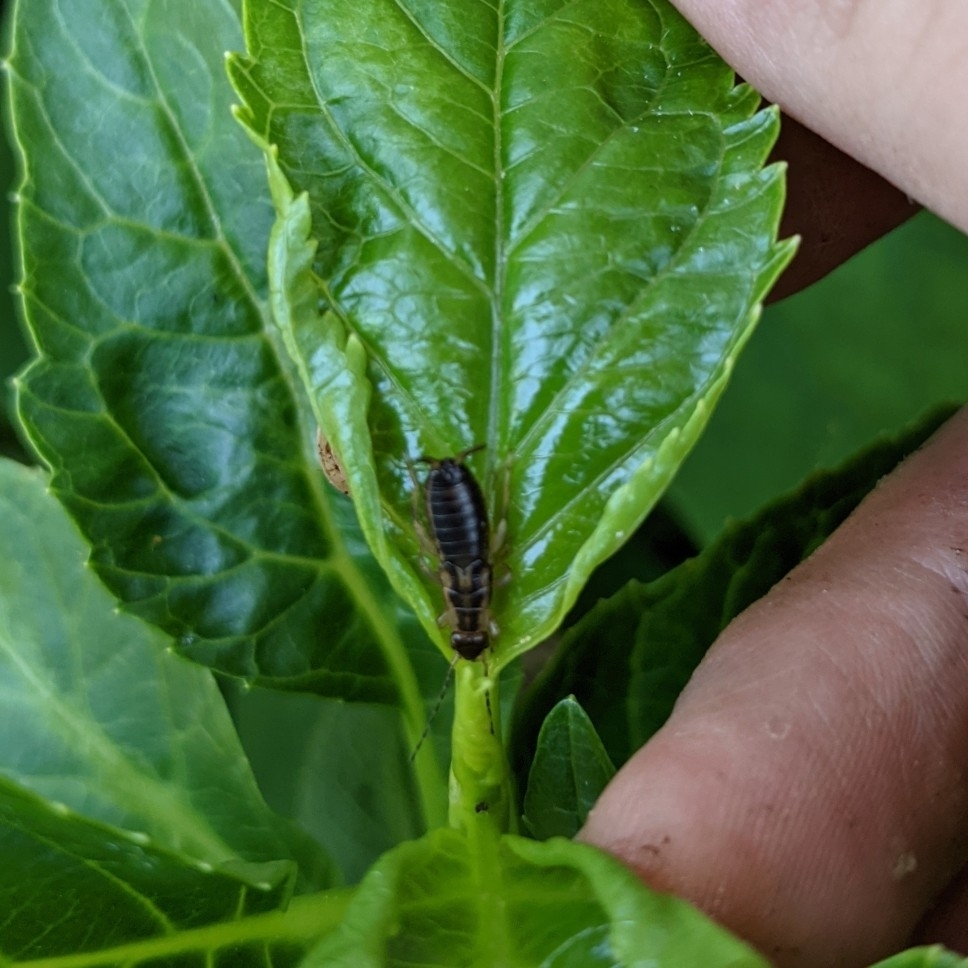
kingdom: Animalia
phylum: Arthropoda
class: Insecta
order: Dermaptera
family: Forficulidae
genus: Forficula
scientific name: Forficula
